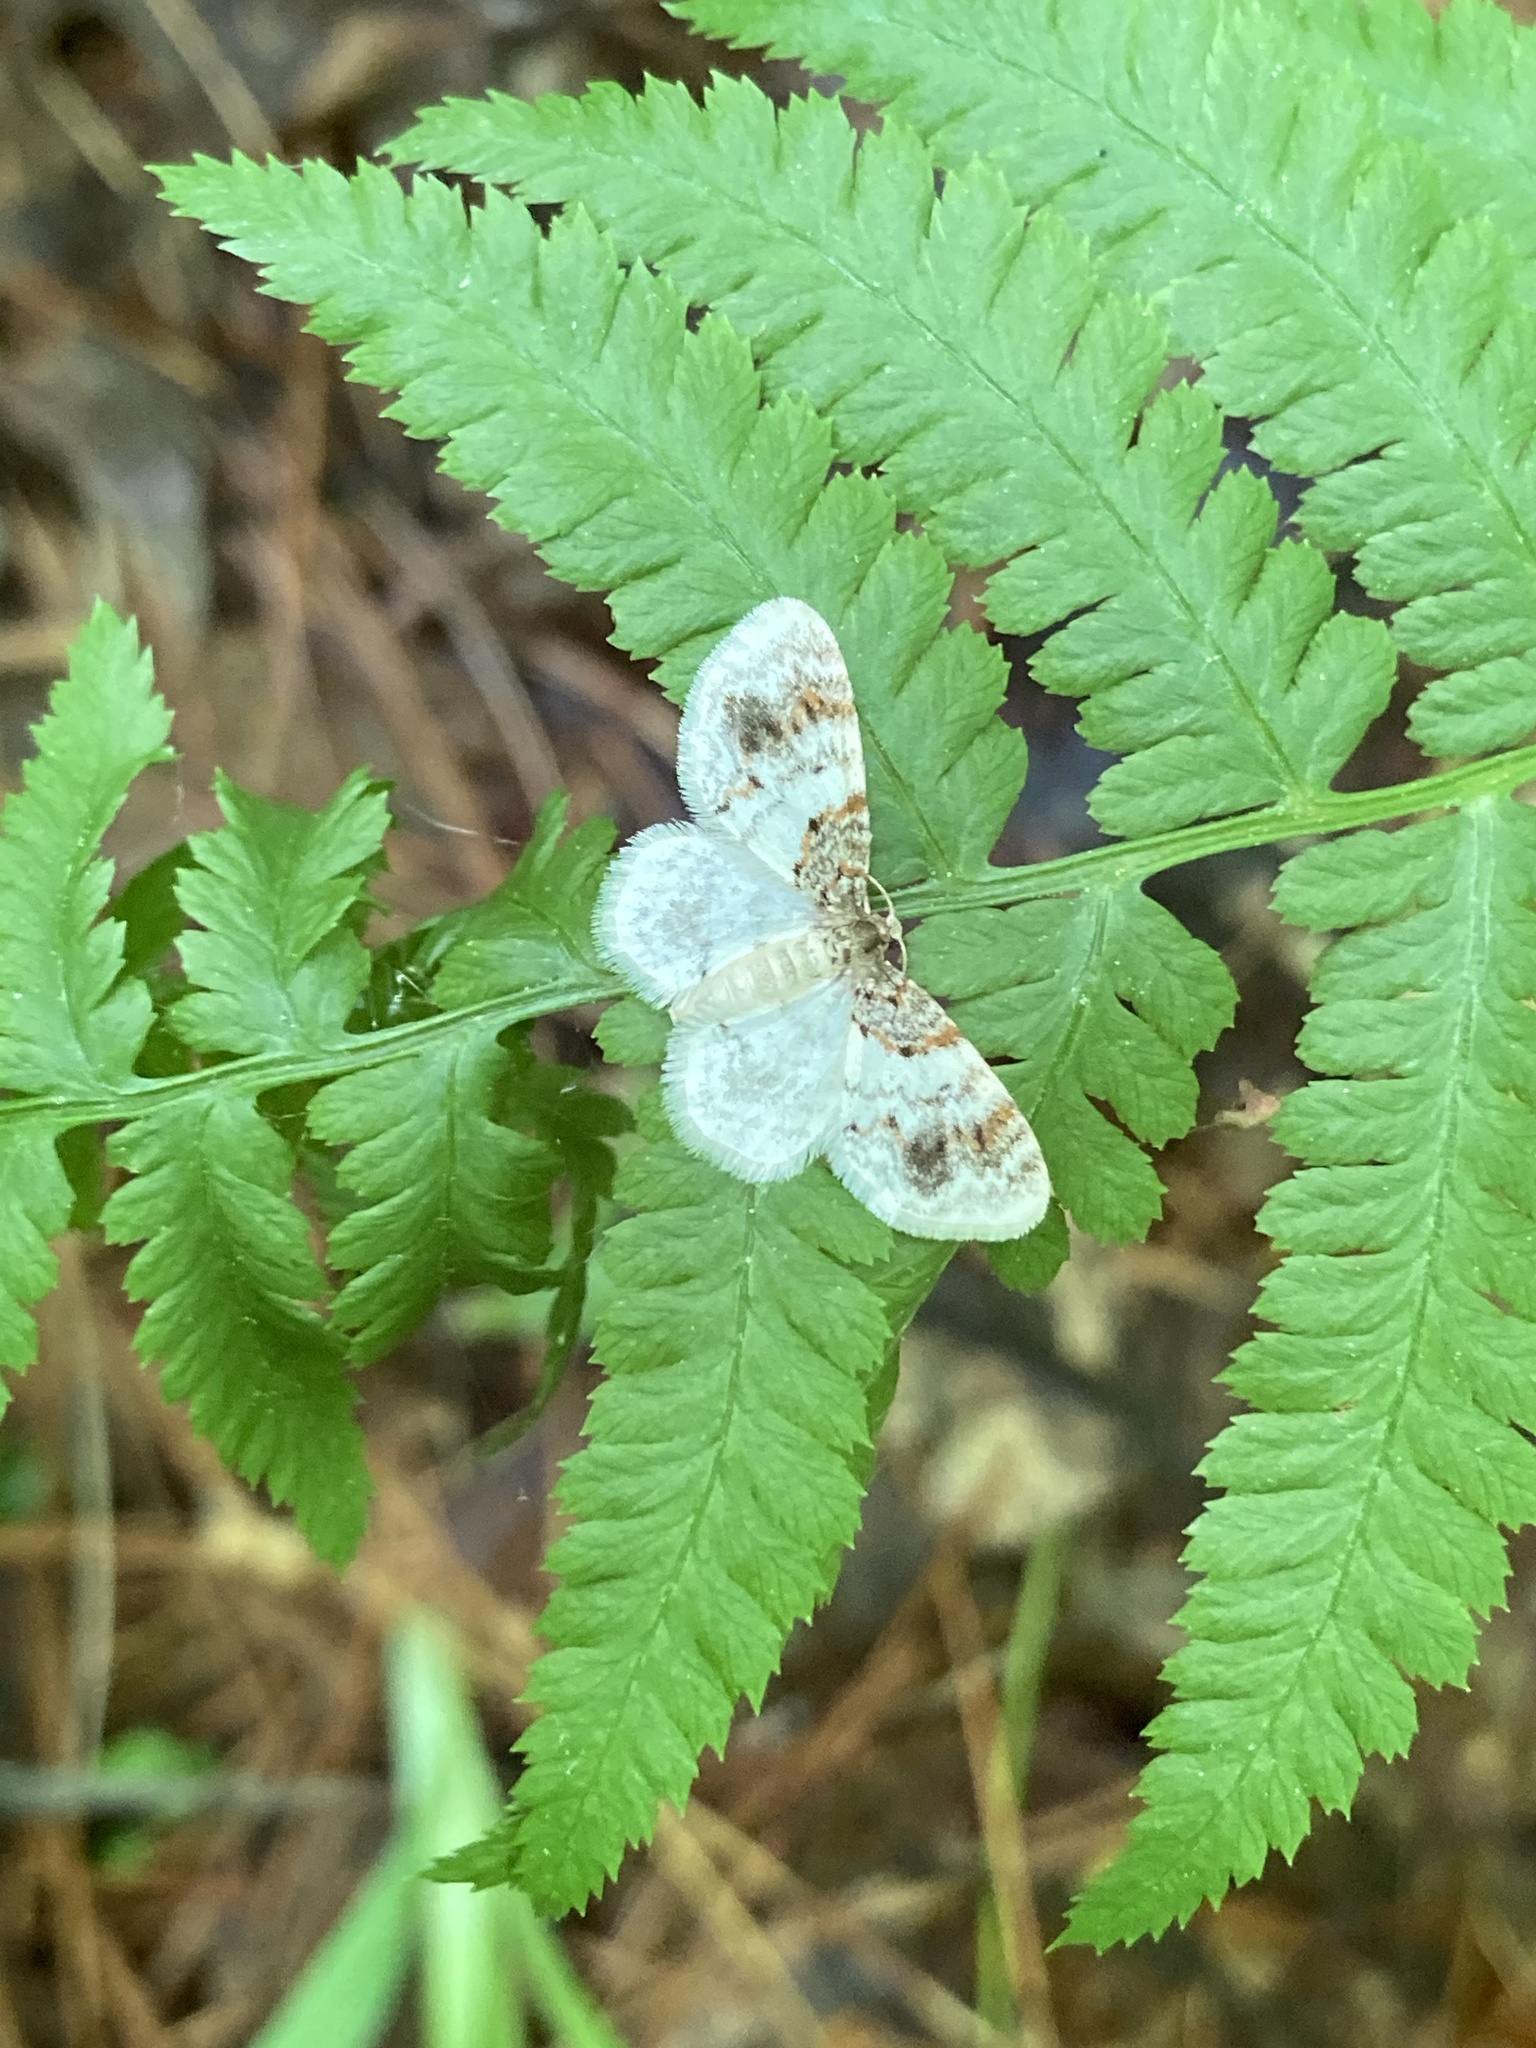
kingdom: Animalia
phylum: Arthropoda
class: Insecta
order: Lepidoptera
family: Geometridae
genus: Hydrelia
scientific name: Hydrelia condensata
